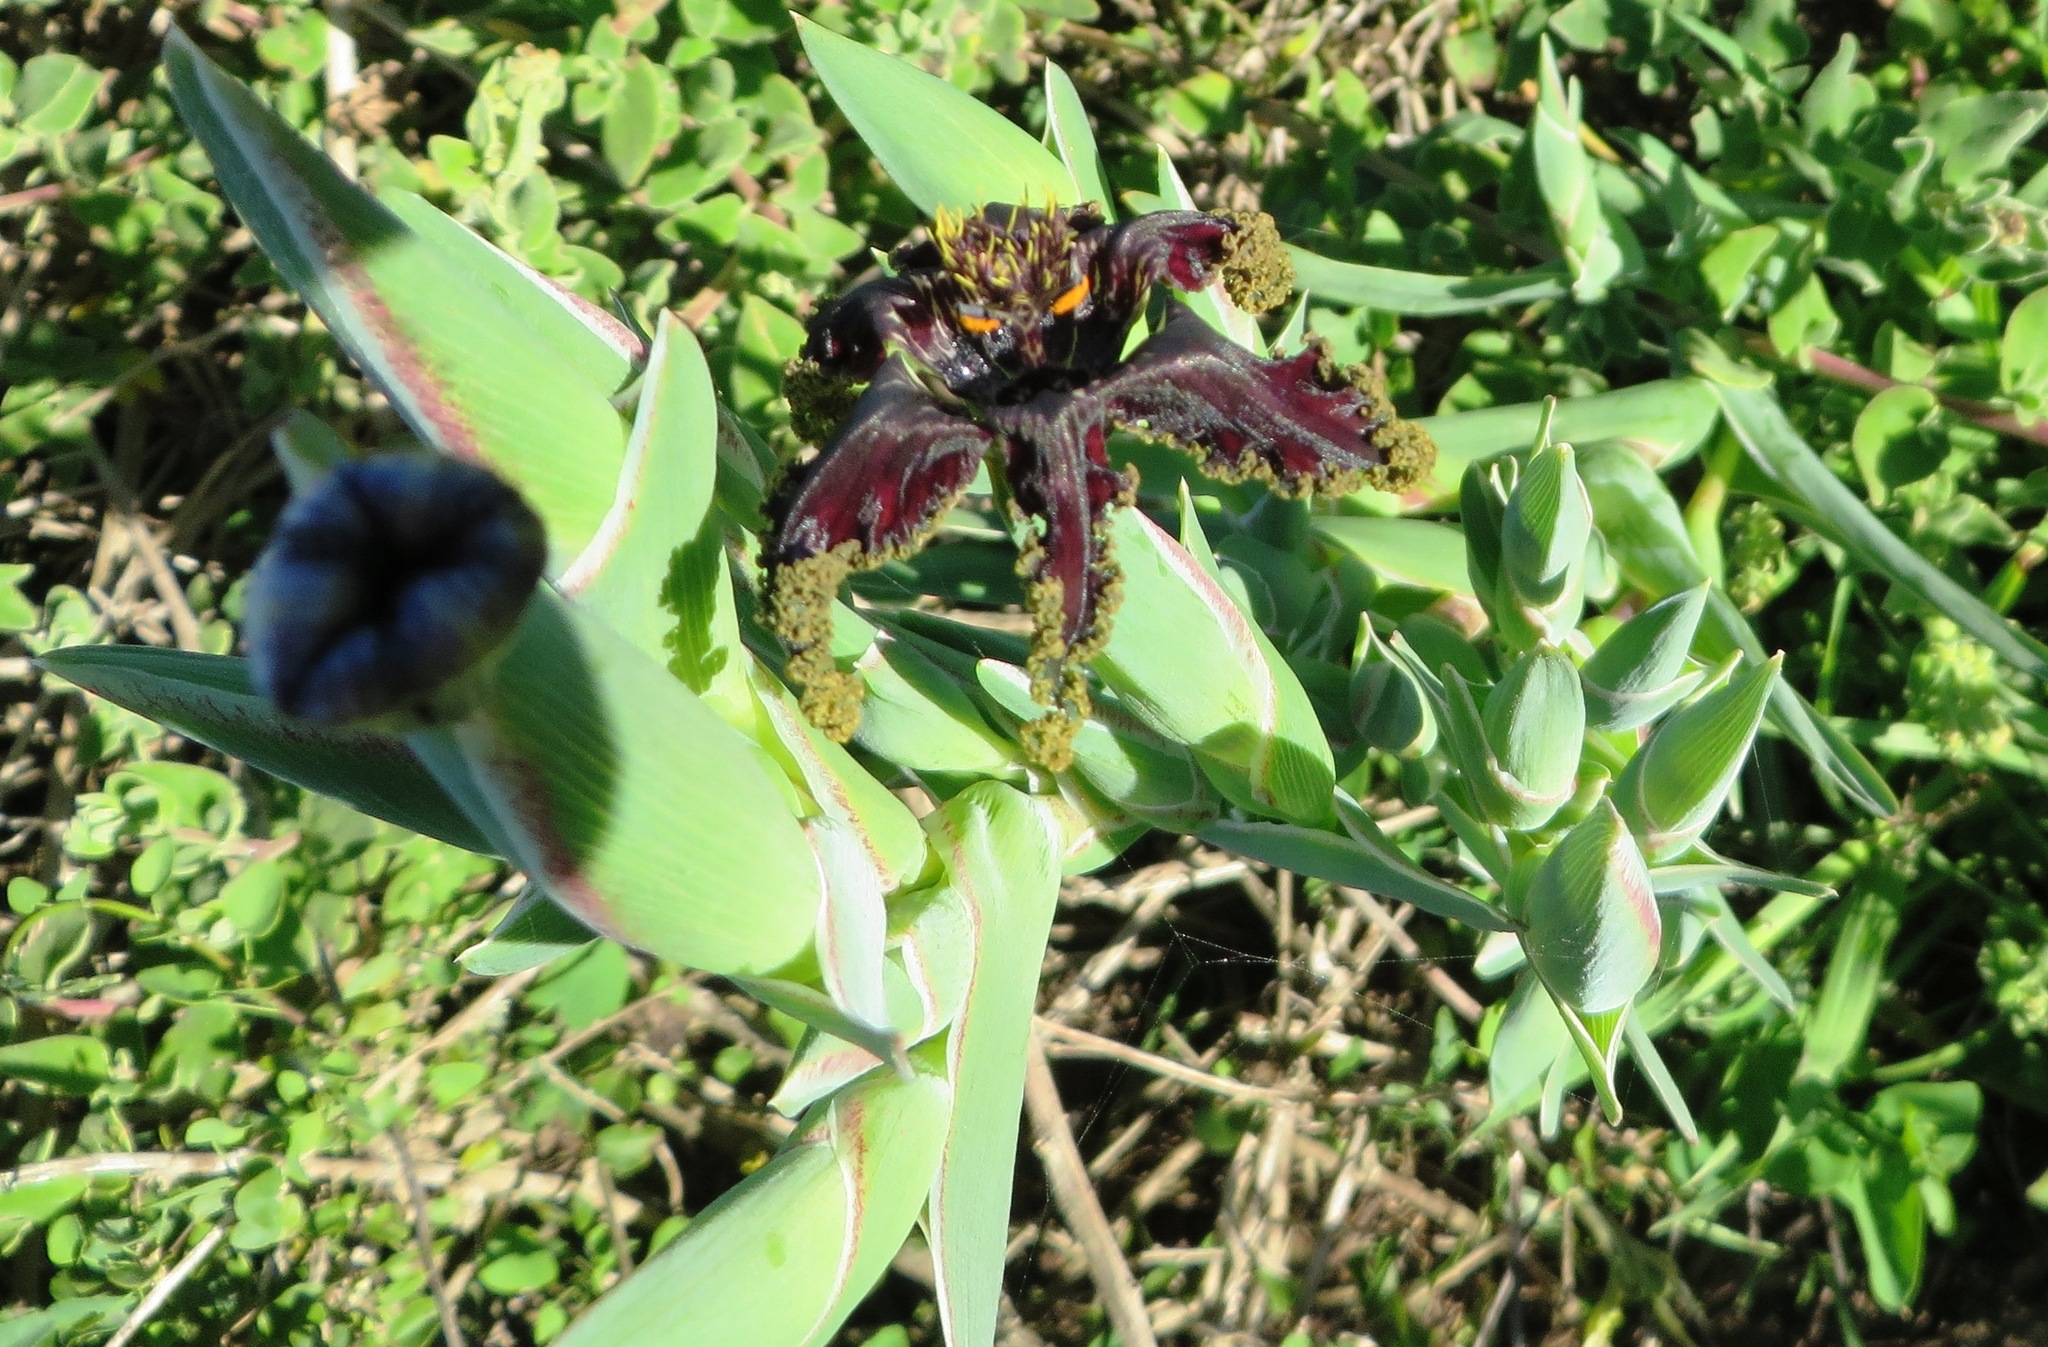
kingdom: Plantae
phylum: Tracheophyta
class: Liliopsida
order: Asparagales
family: Iridaceae
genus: Ferraria
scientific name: Ferraria crispa
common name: Black-flag
